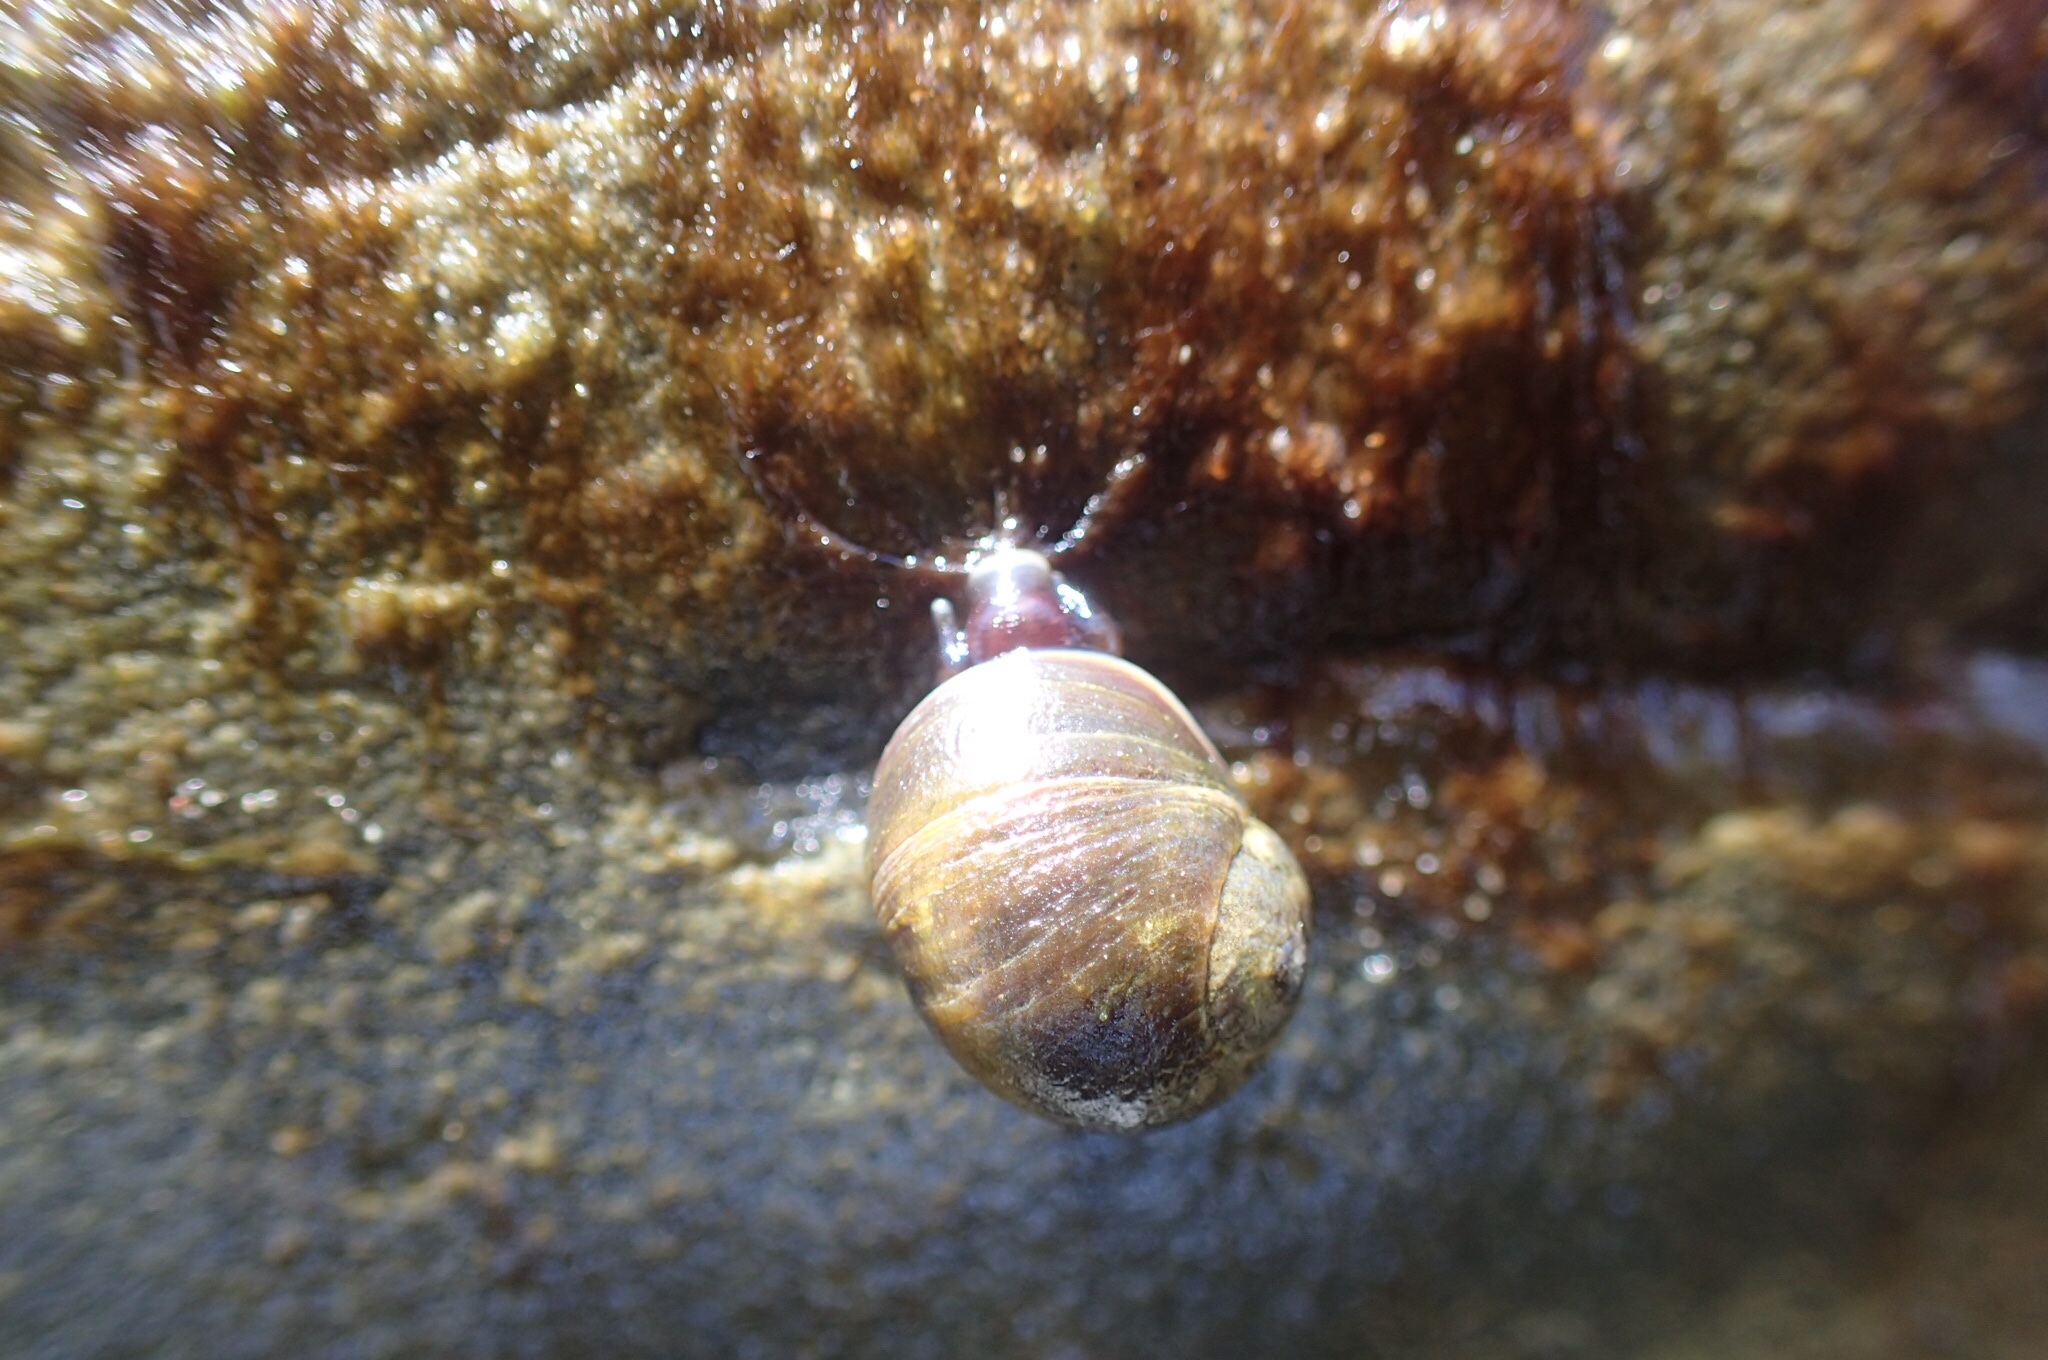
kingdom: Animalia
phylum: Mollusca
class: Gastropoda
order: Littorinimorpha
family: Littorinidae
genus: Littorina
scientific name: Littorina obtusata
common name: Flat periwinkle
